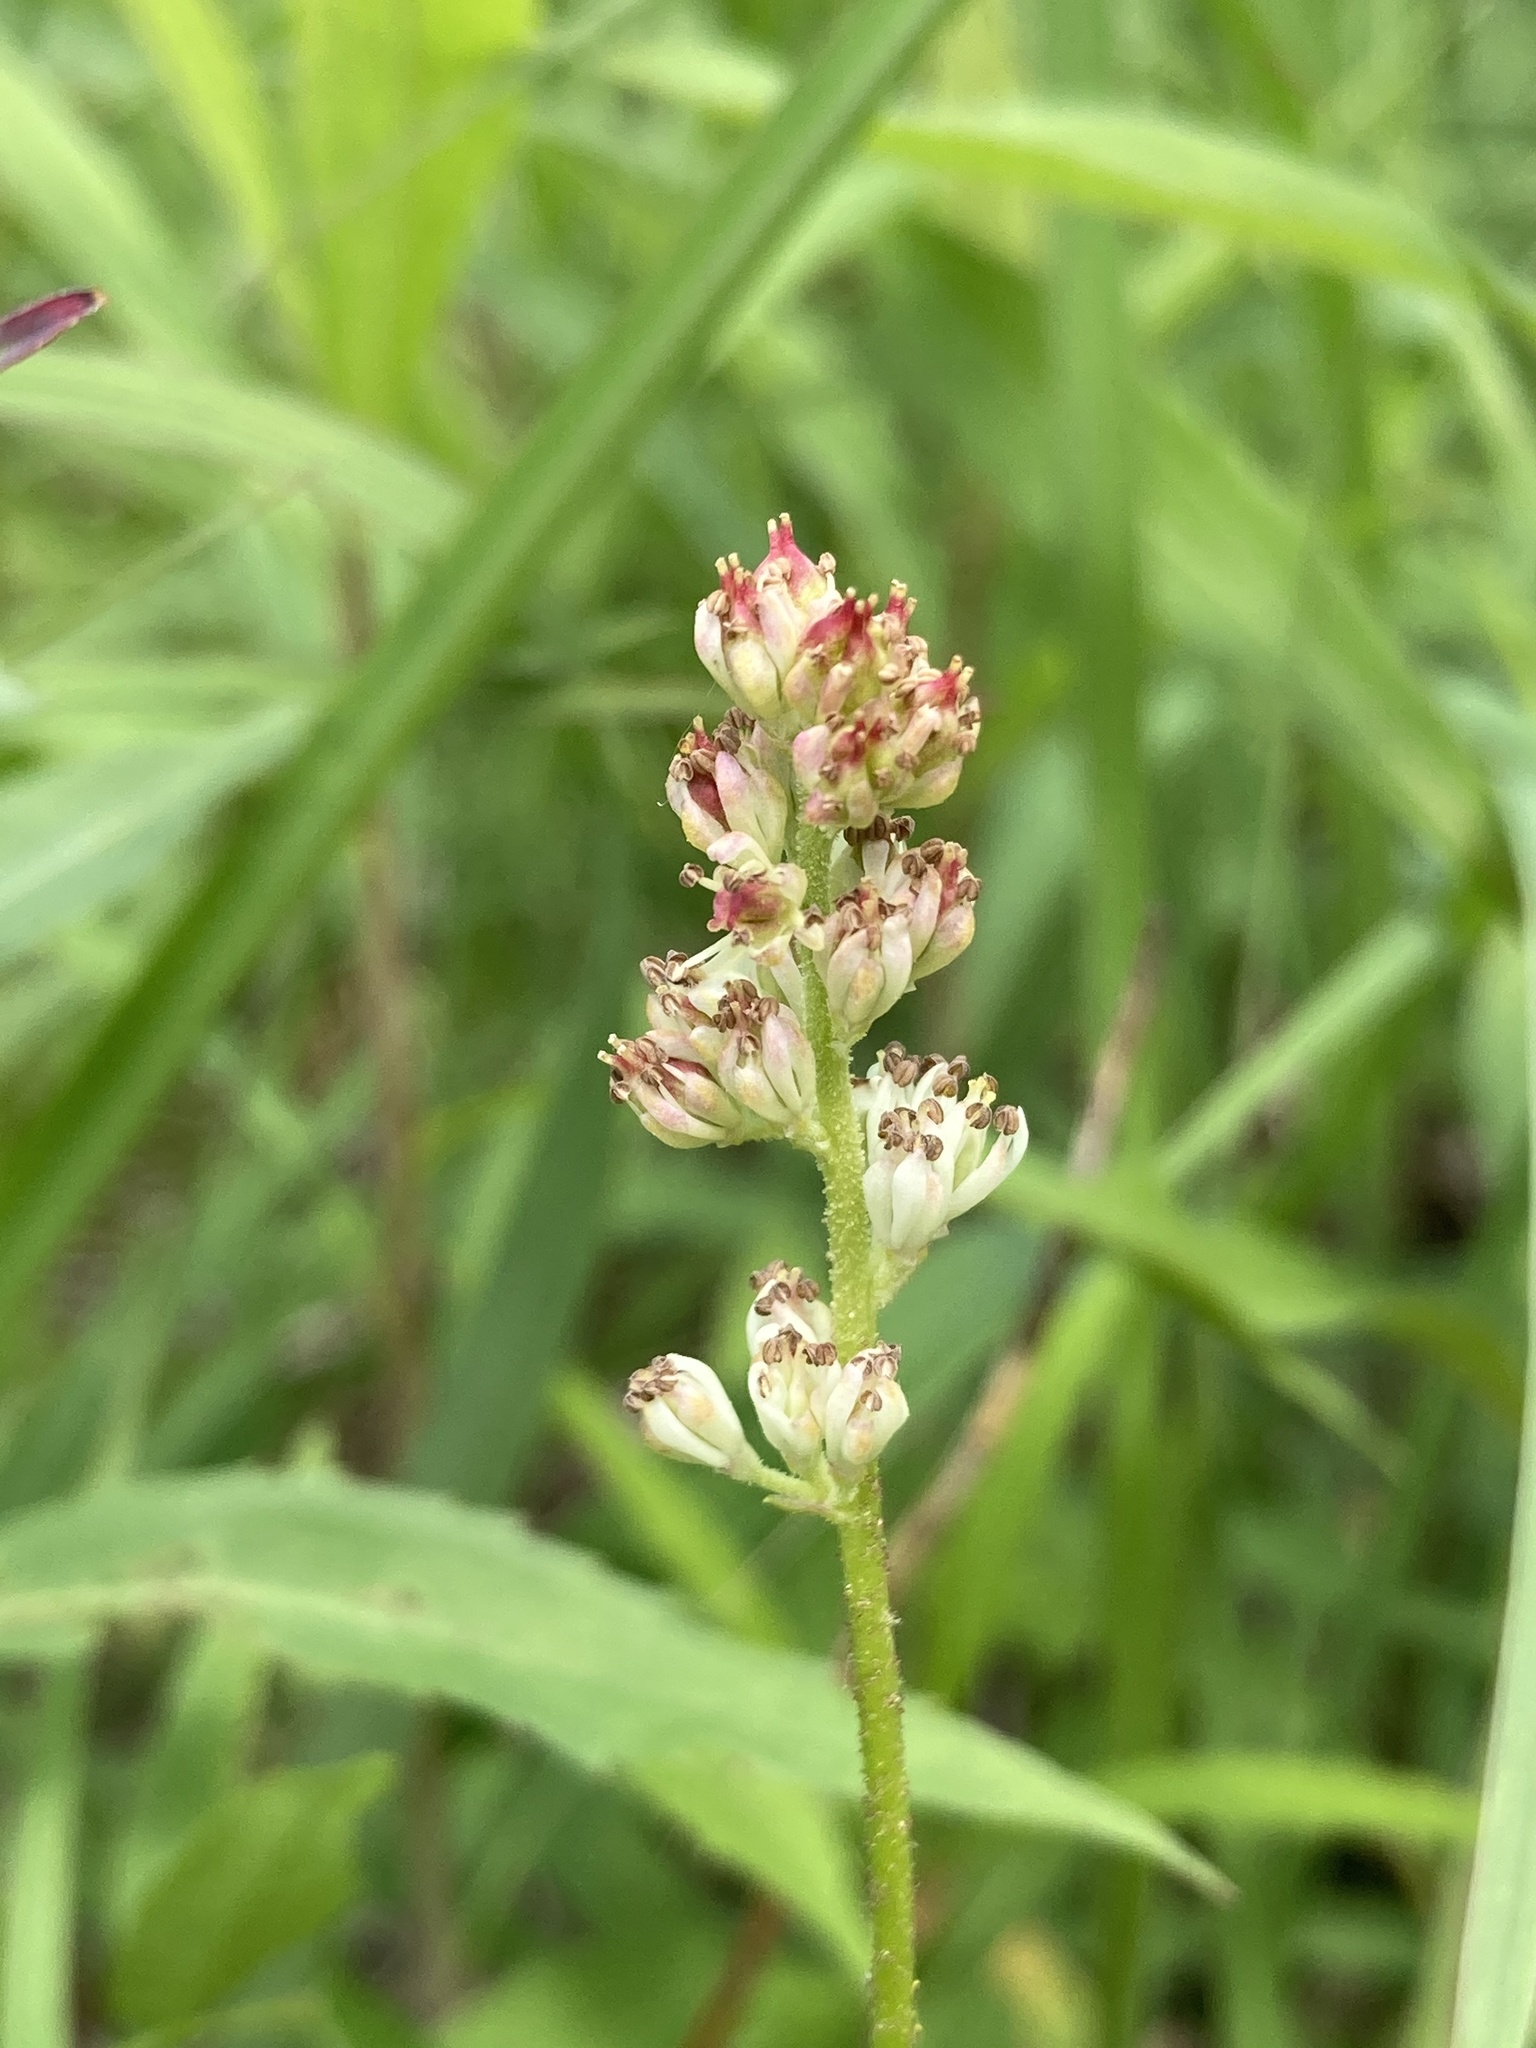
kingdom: Plantae
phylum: Tracheophyta
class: Liliopsida
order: Alismatales
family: Tofieldiaceae
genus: Triantha
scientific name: Triantha glutinosa
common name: Glutinous tofieldia
